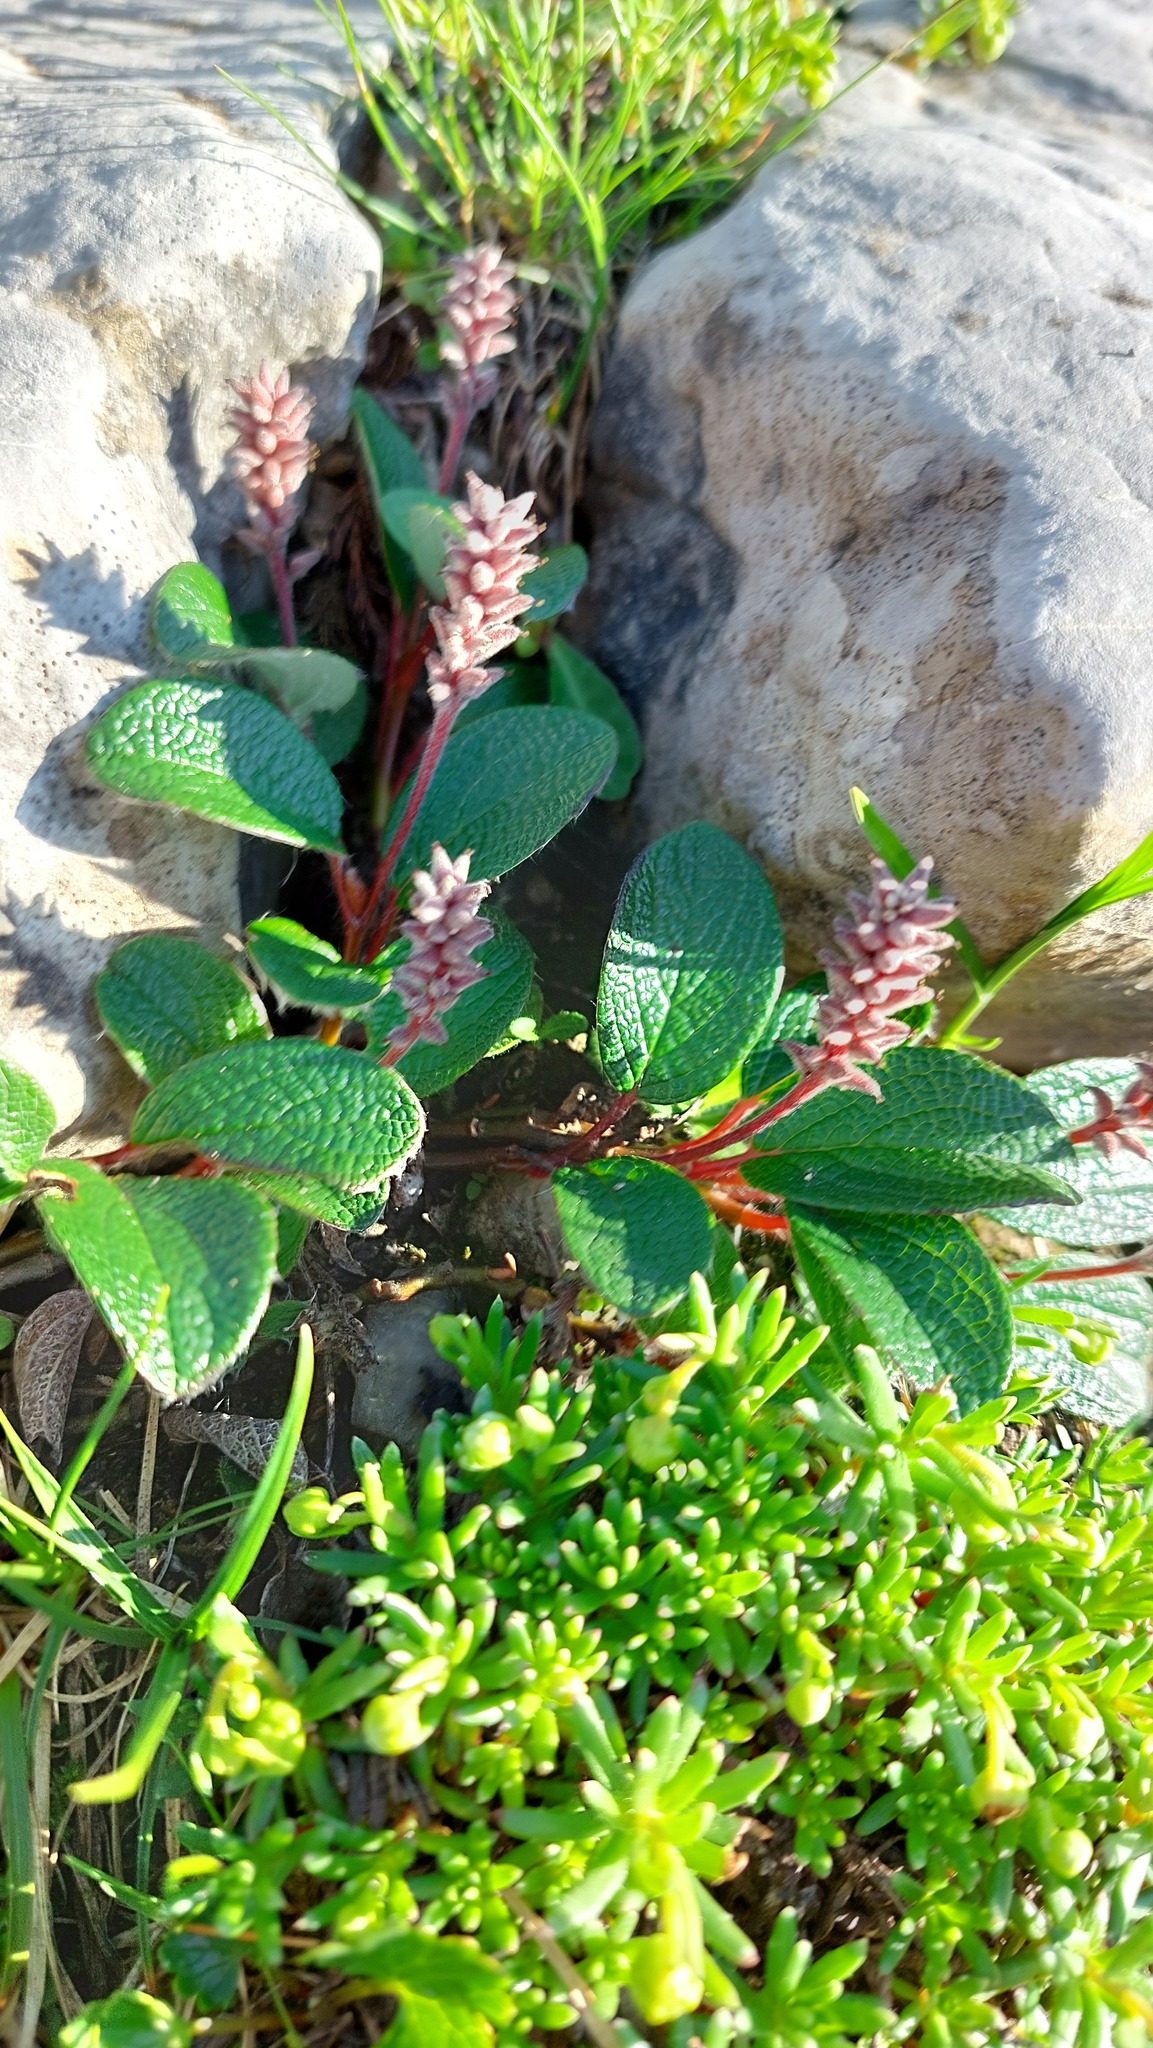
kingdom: Plantae
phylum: Tracheophyta
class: Magnoliopsida
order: Malpighiales
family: Salicaceae
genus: Salix
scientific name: Salix reticulata
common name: Net-leaved willow
